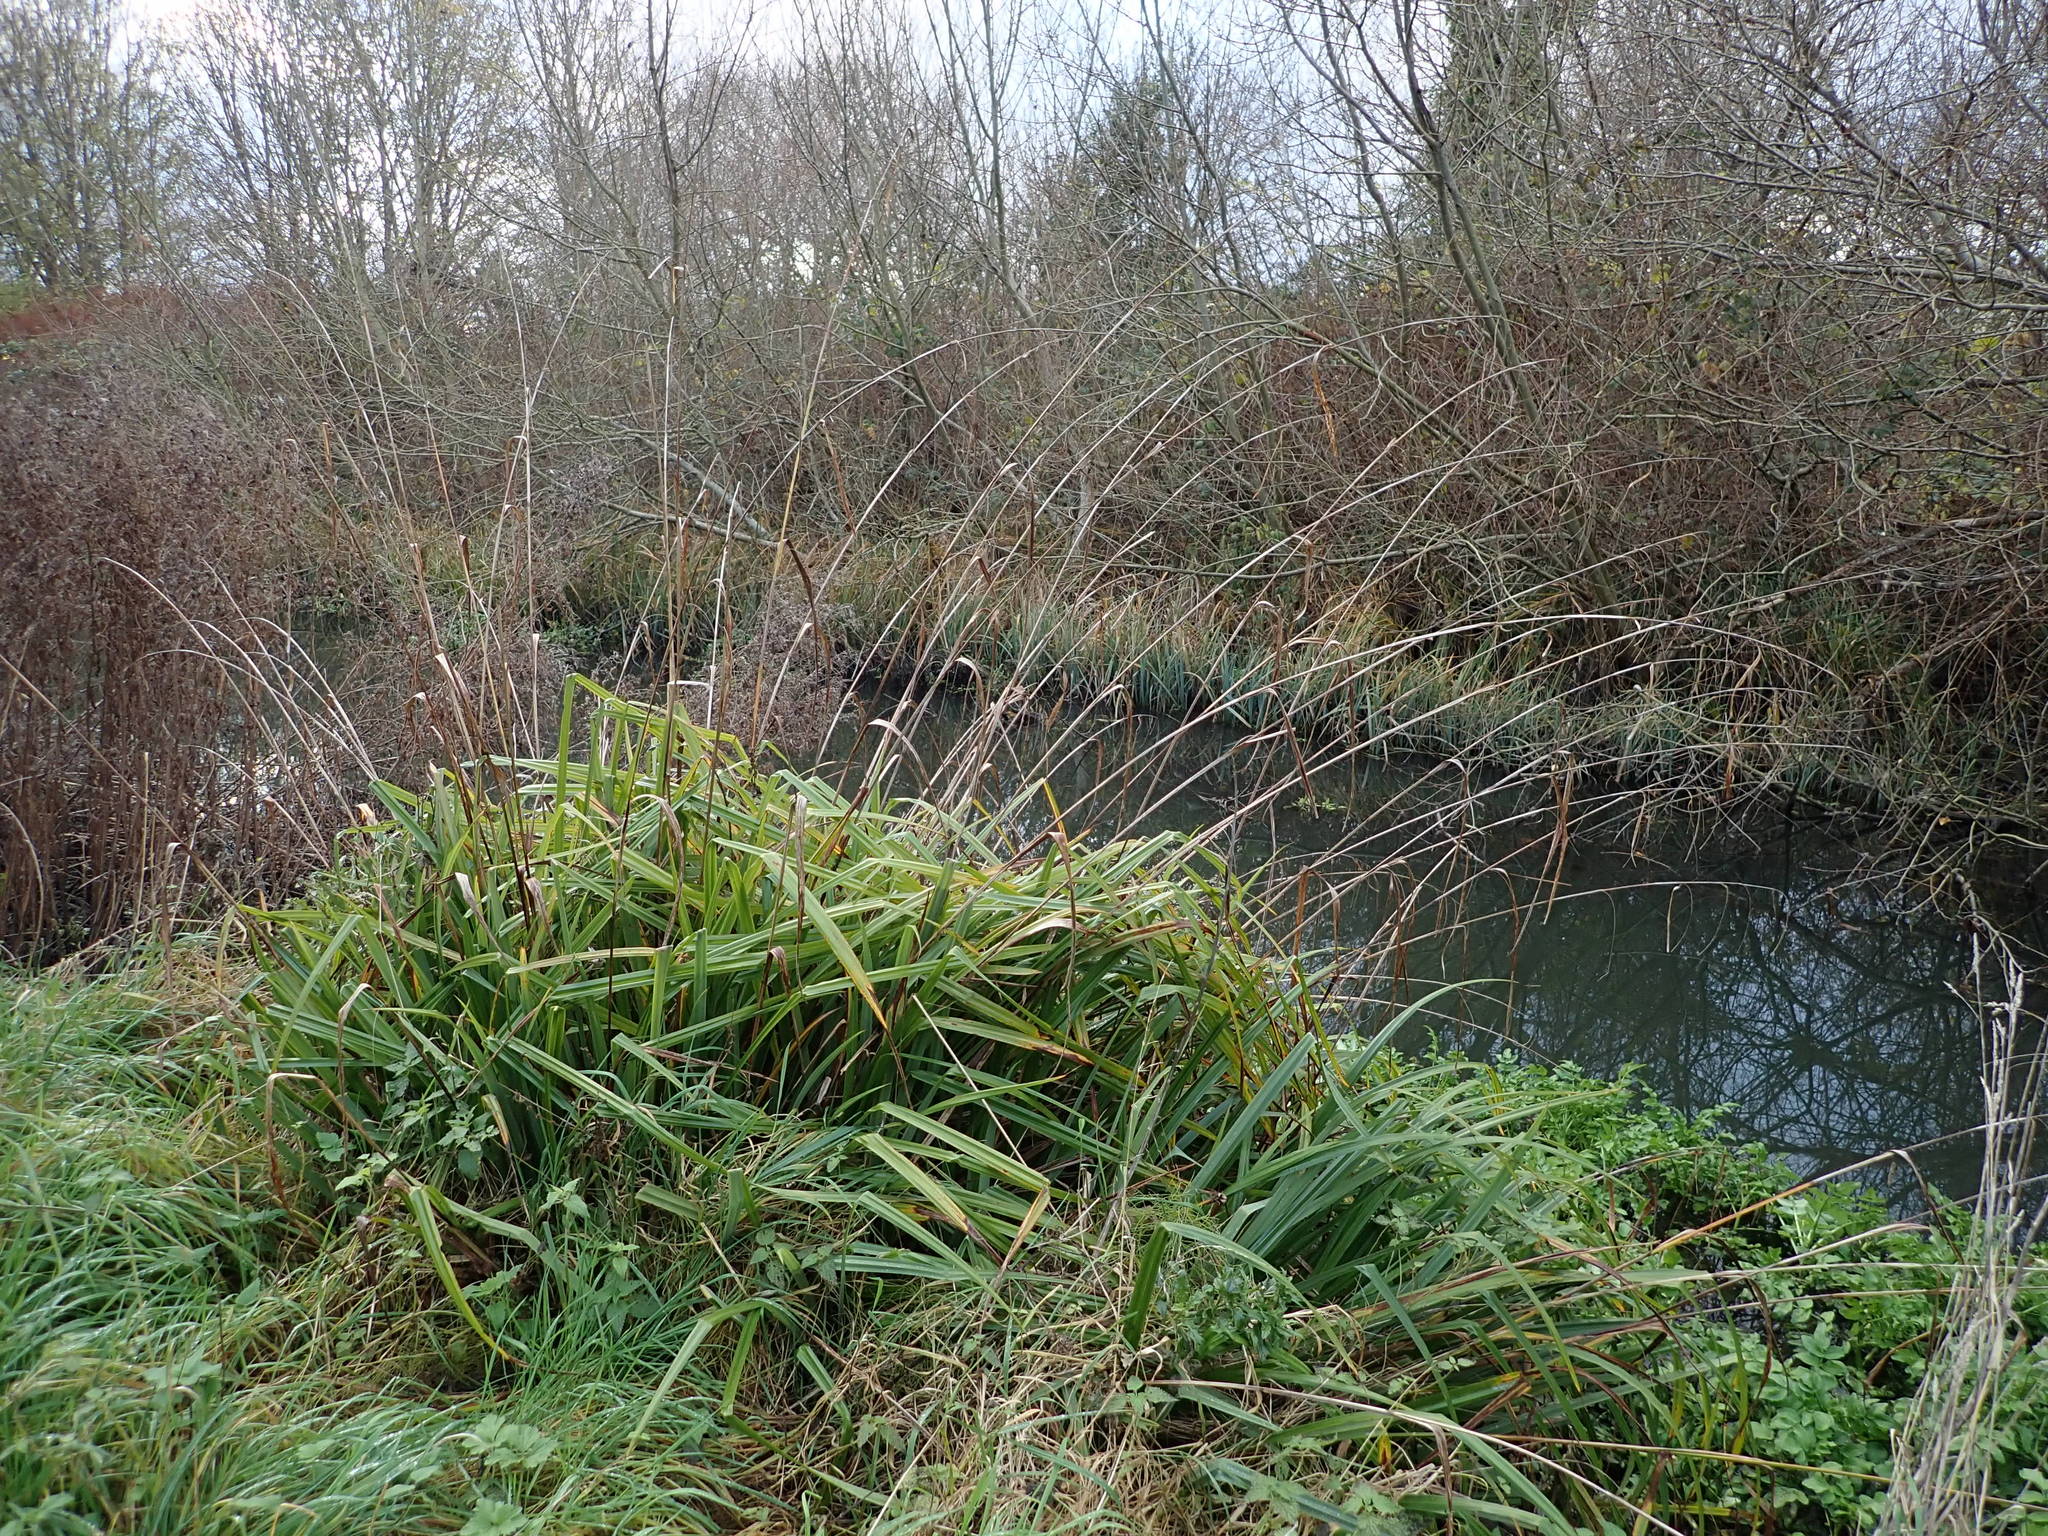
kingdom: Plantae
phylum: Tracheophyta
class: Liliopsida
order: Poales
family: Cyperaceae
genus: Carex
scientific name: Carex pendula
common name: Pendulous sedge
